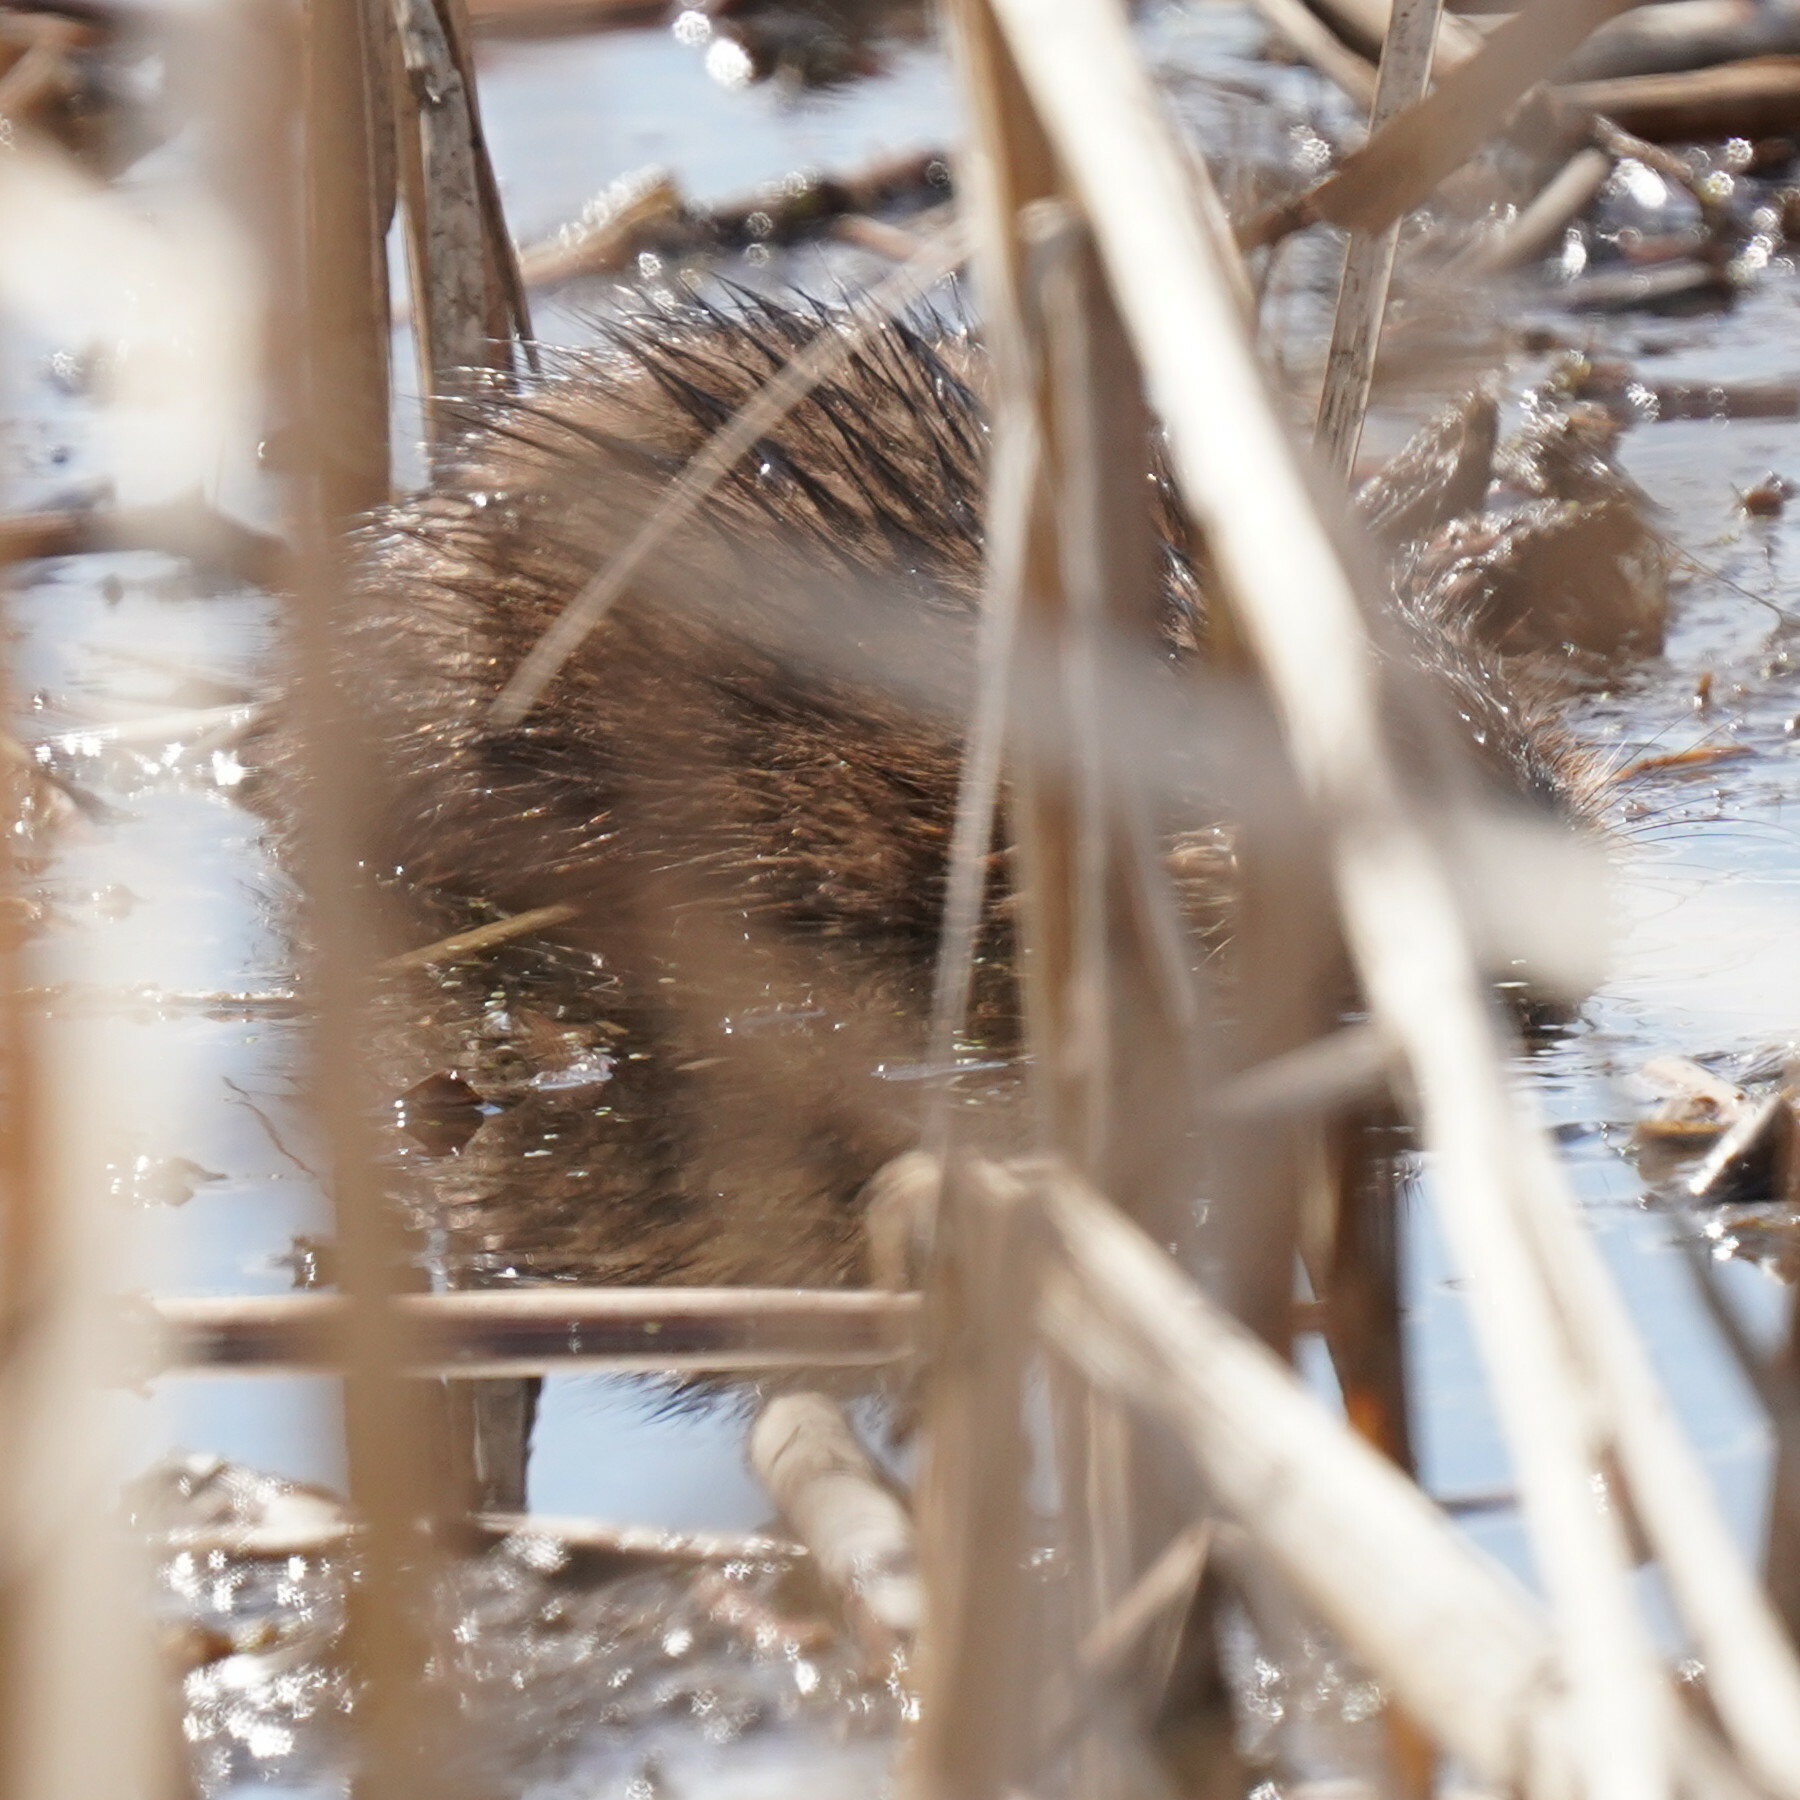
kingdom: Animalia
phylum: Chordata
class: Mammalia
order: Rodentia
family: Cricetidae
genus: Ondatra
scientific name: Ondatra zibethicus
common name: Muskrat
